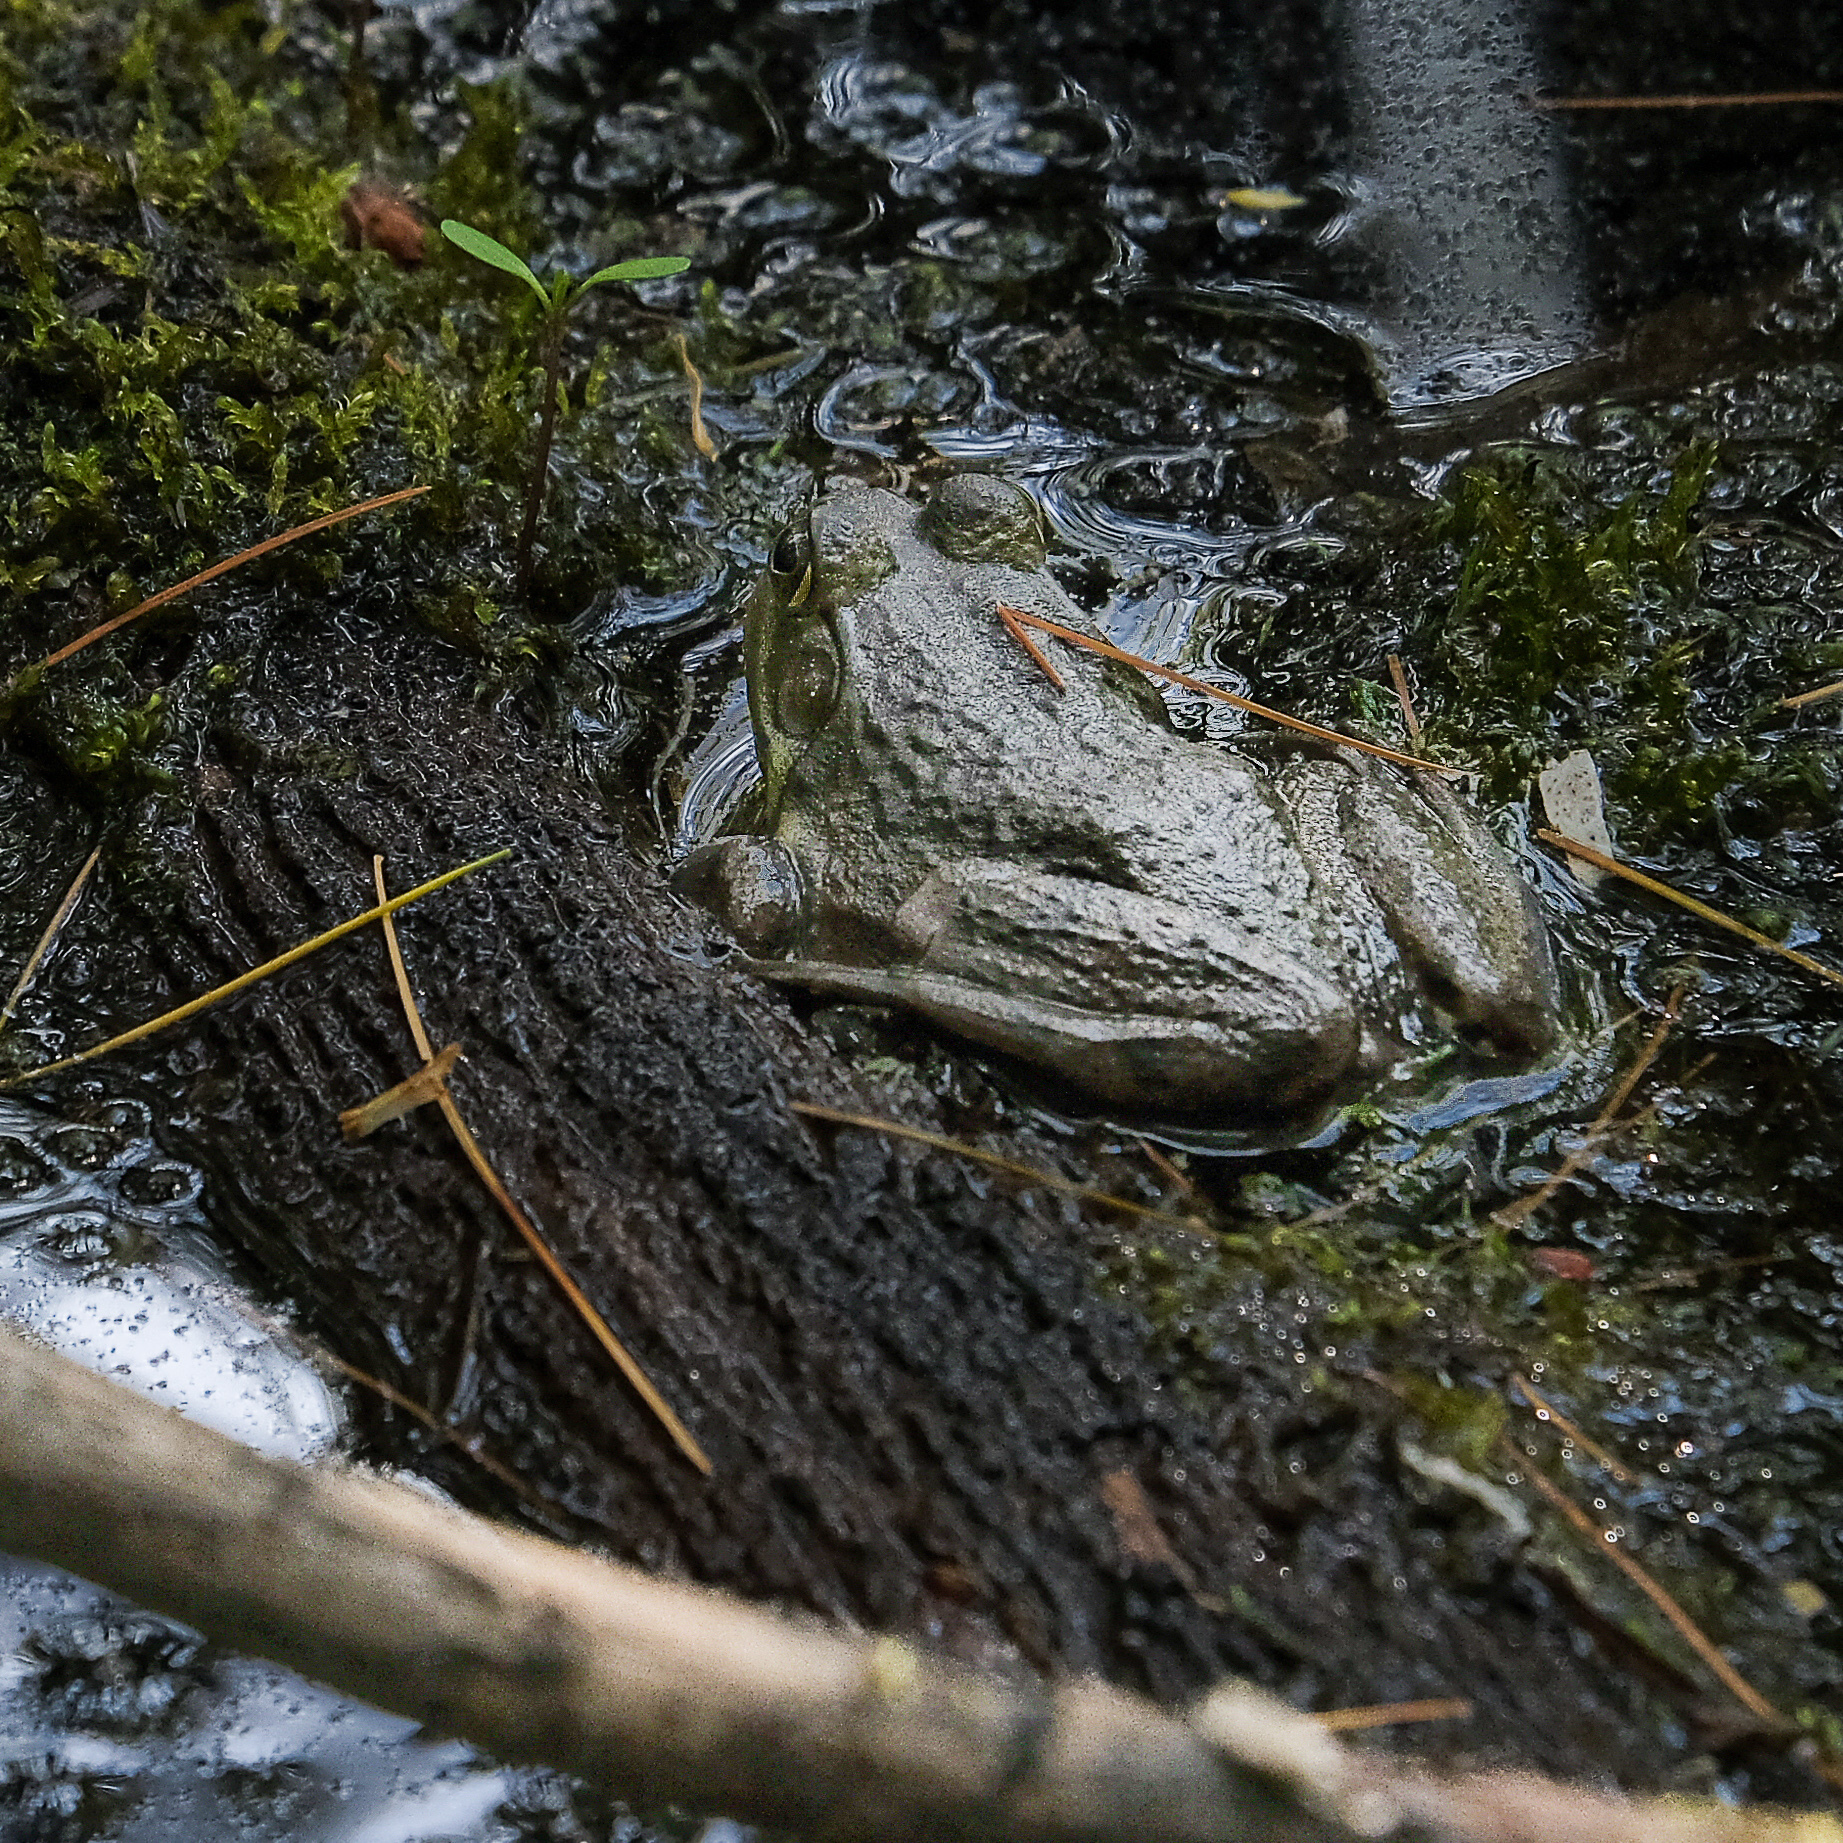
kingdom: Animalia
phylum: Chordata
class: Amphibia
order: Anura
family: Ranidae
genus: Lithobates
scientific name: Lithobates catesbeianus
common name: American bullfrog
